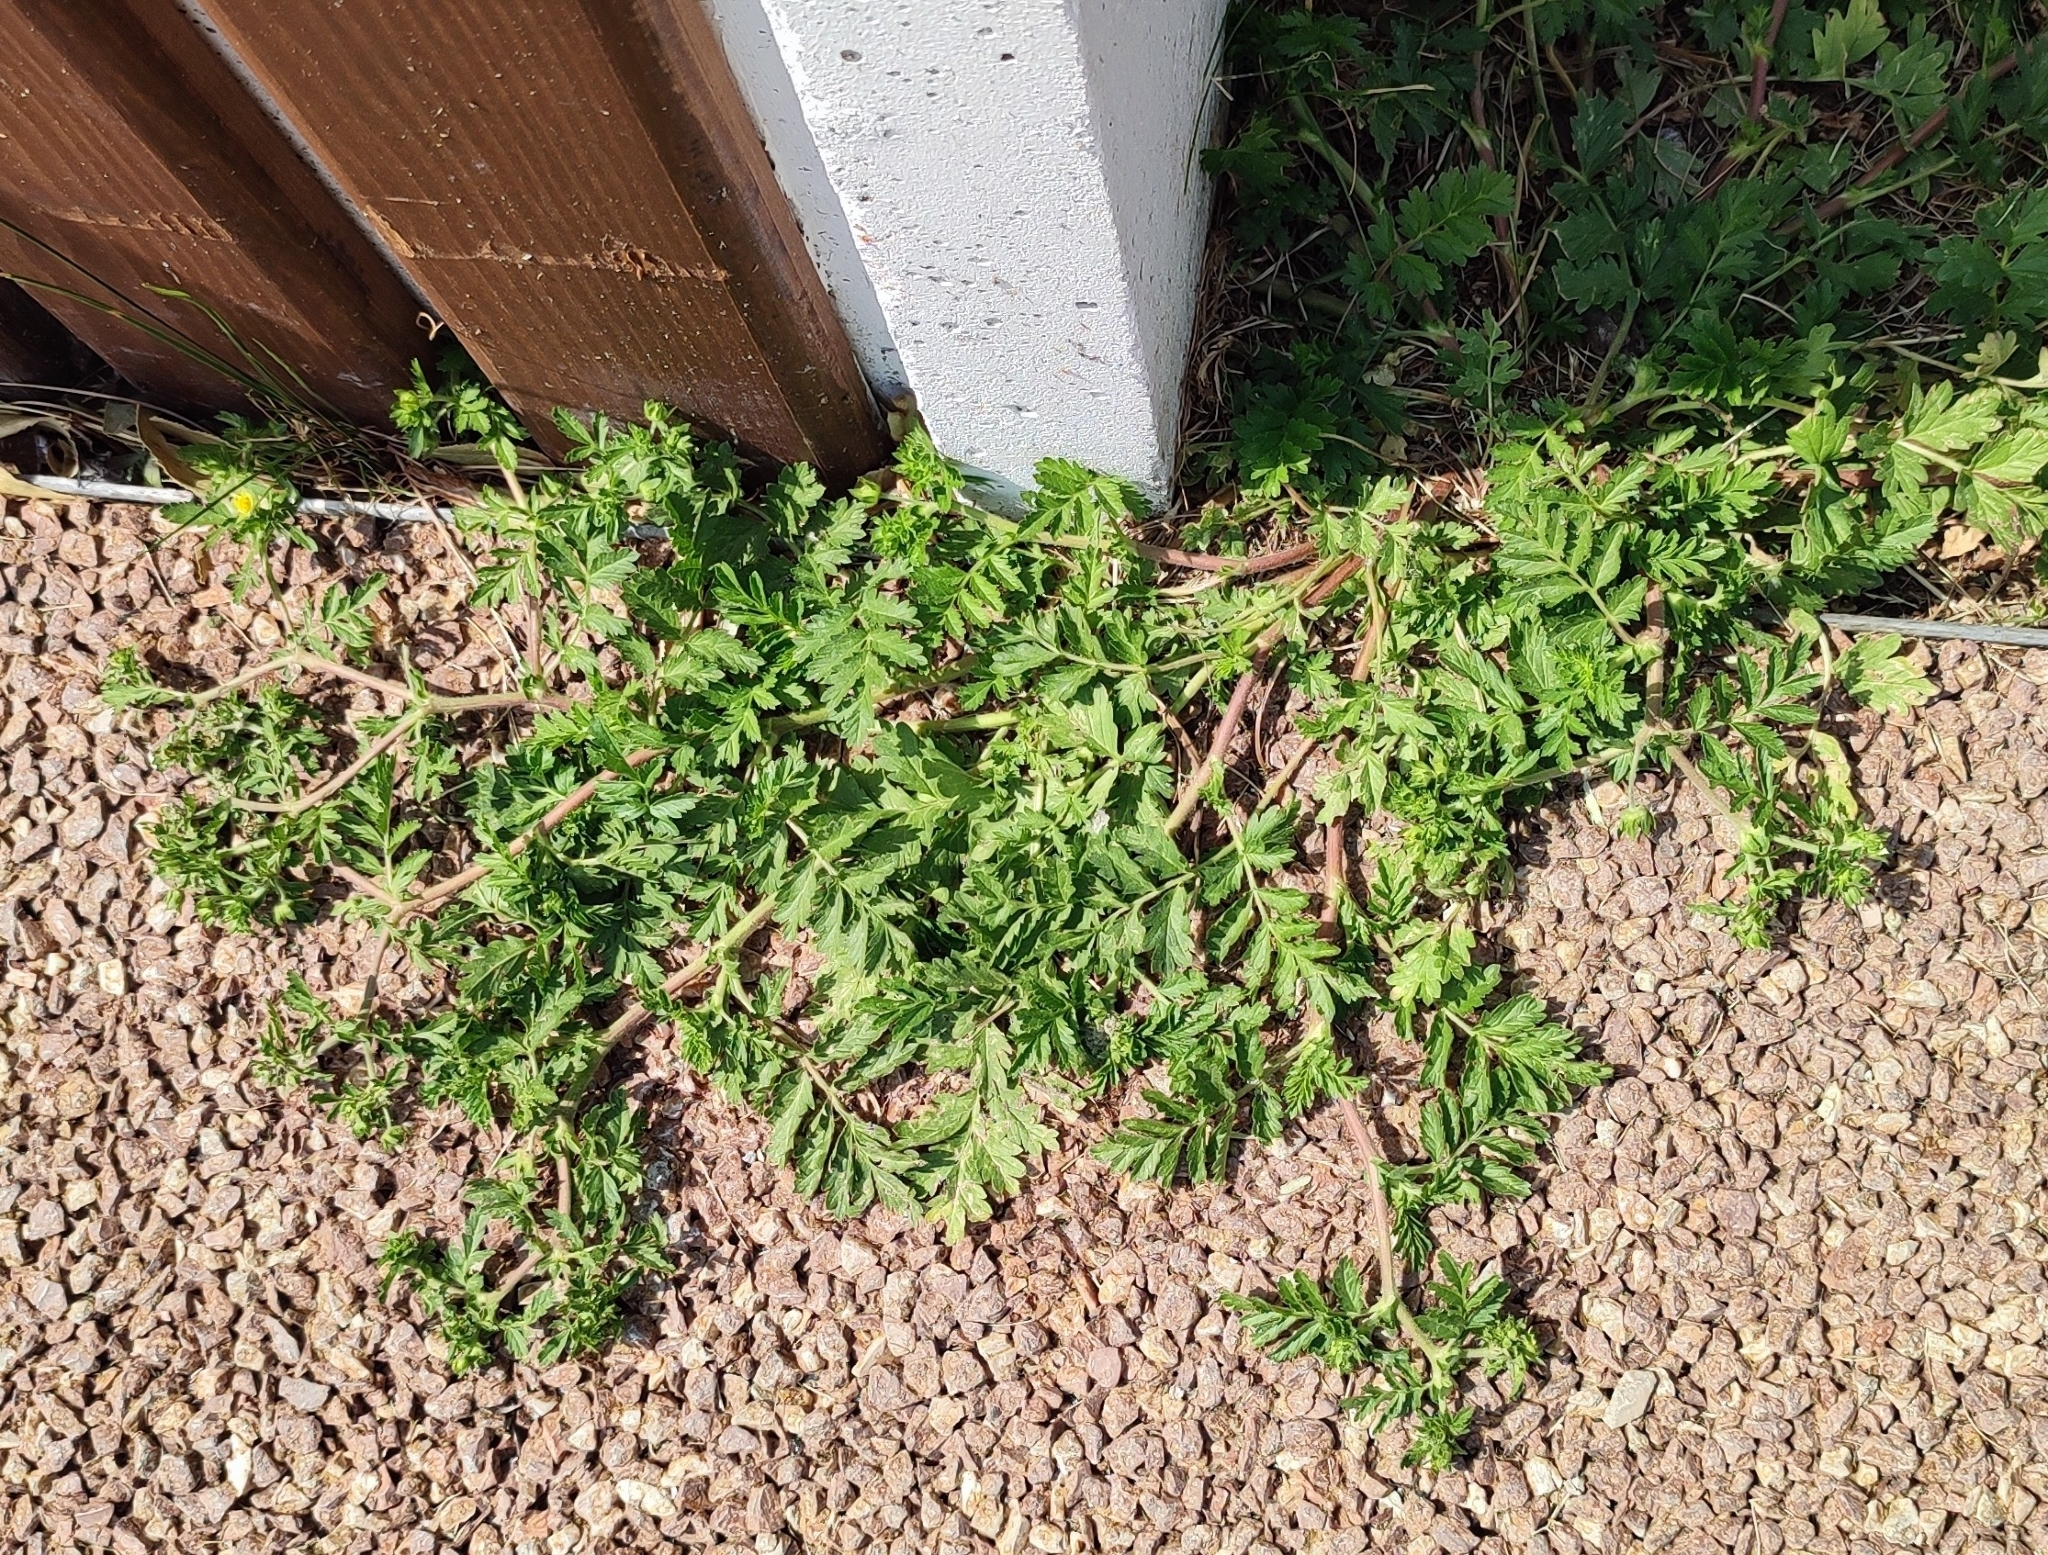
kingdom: Plantae
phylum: Tracheophyta
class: Magnoliopsida
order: Rosales
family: Rosaceae
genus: Potentilla
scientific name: Potentilla supina
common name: Prostrate cinquefoil
